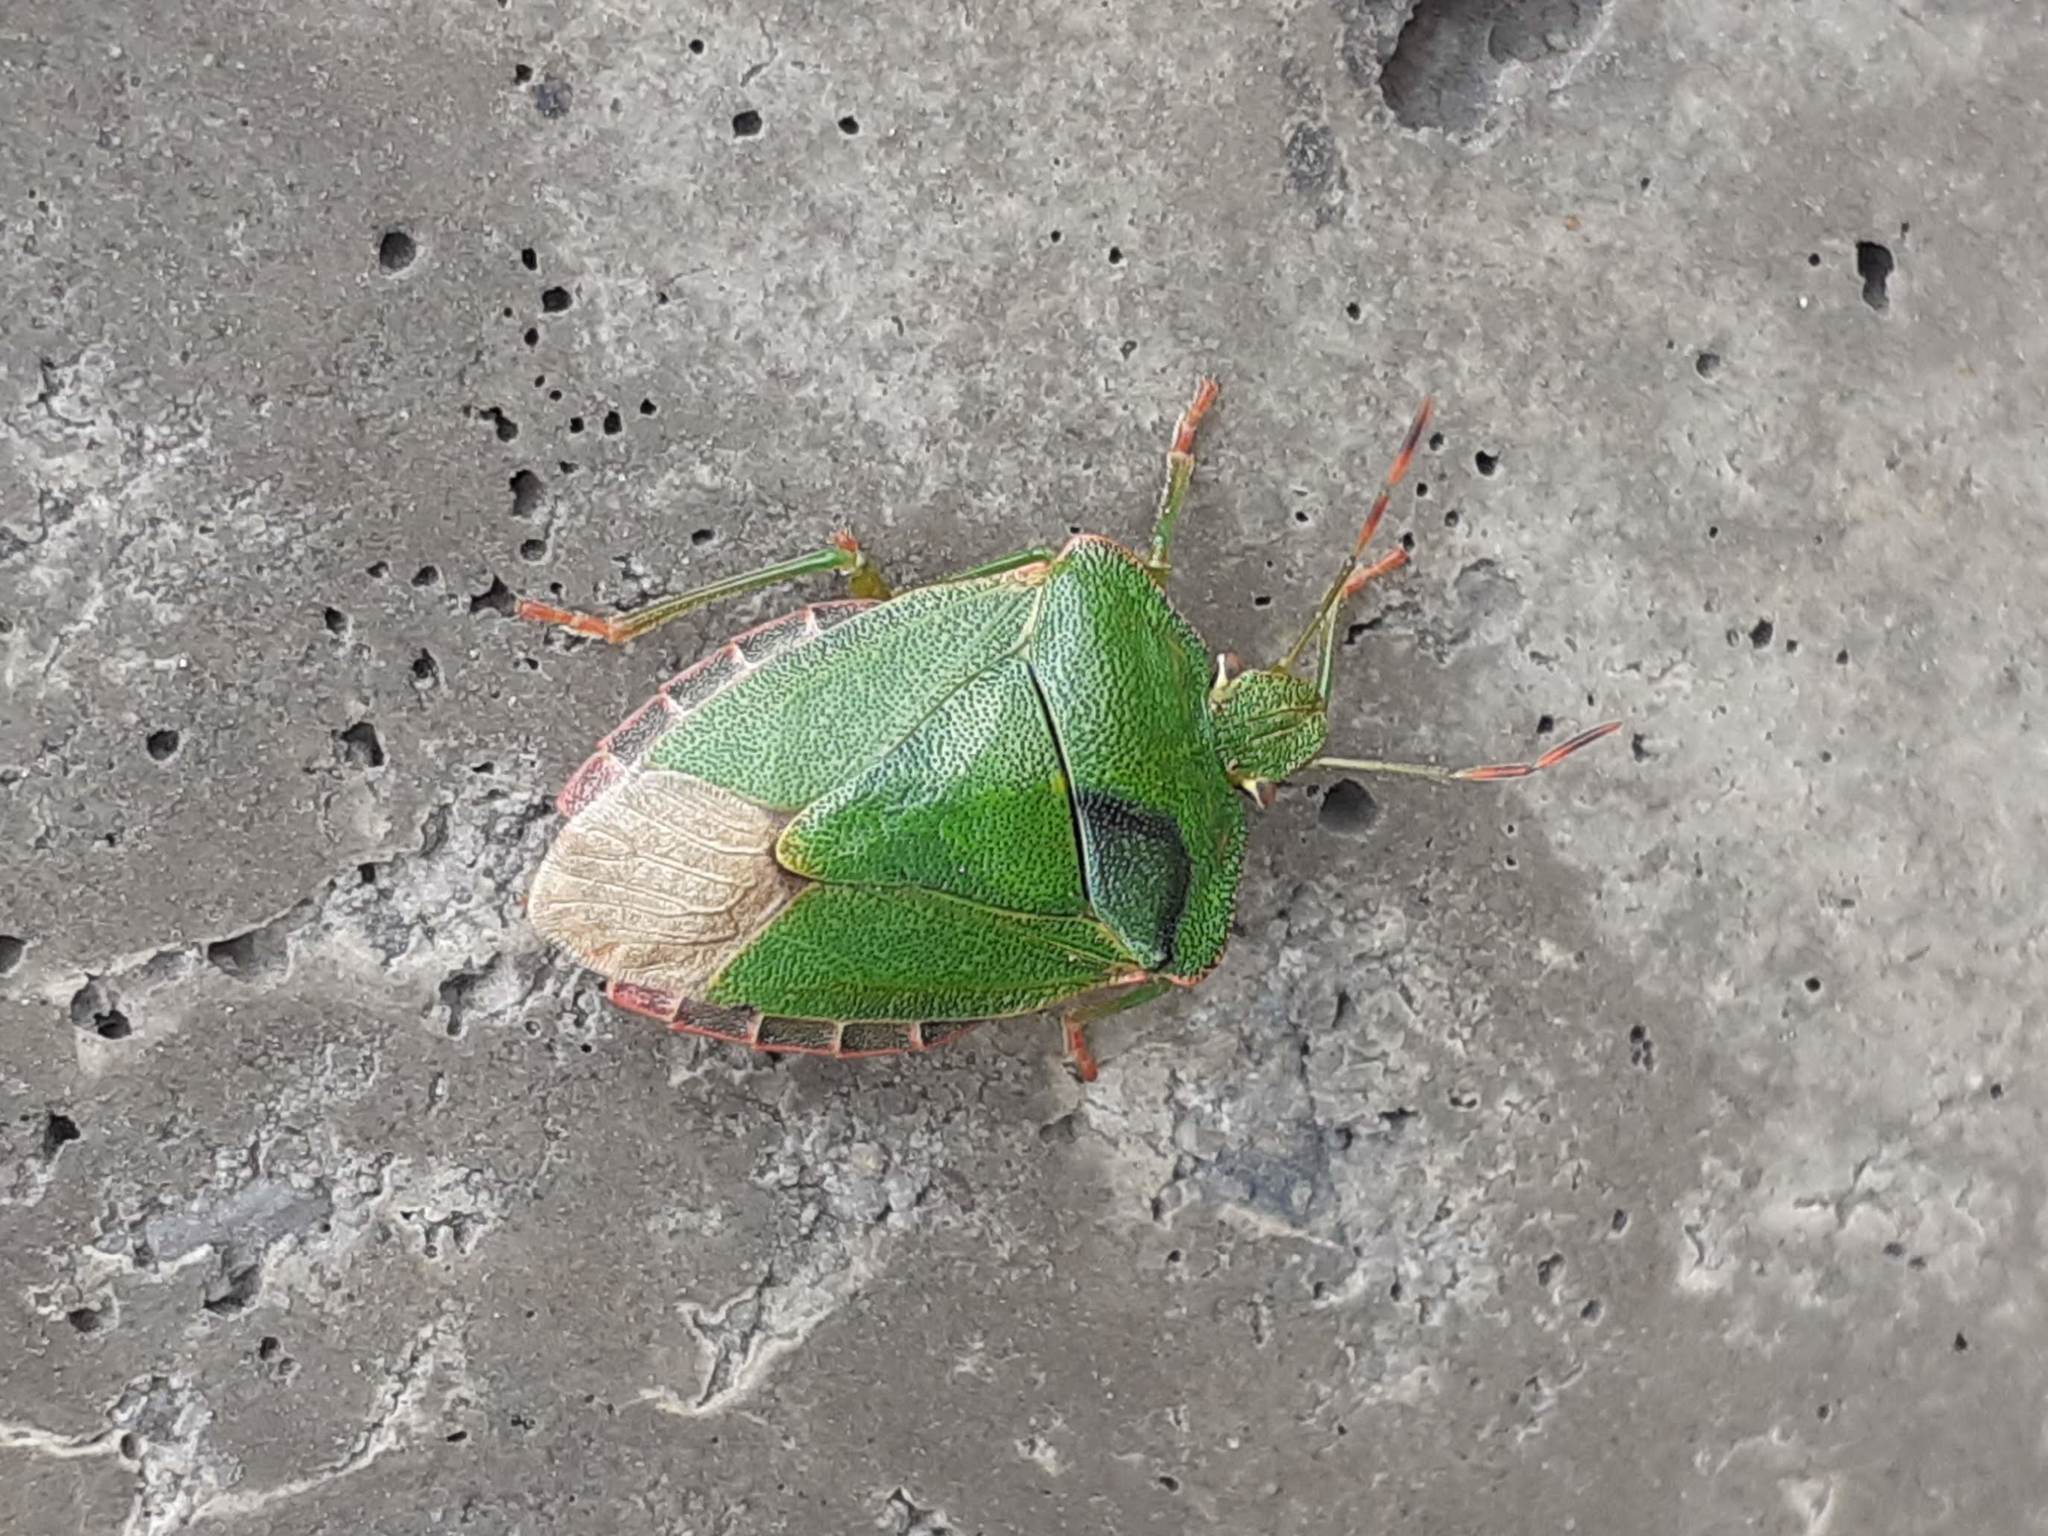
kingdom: Animalia
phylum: Arthropoda
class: Insecta
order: Hemiptera
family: Pentatomidae
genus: Palomena
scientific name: Palomena prasina
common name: Green shieldbug
